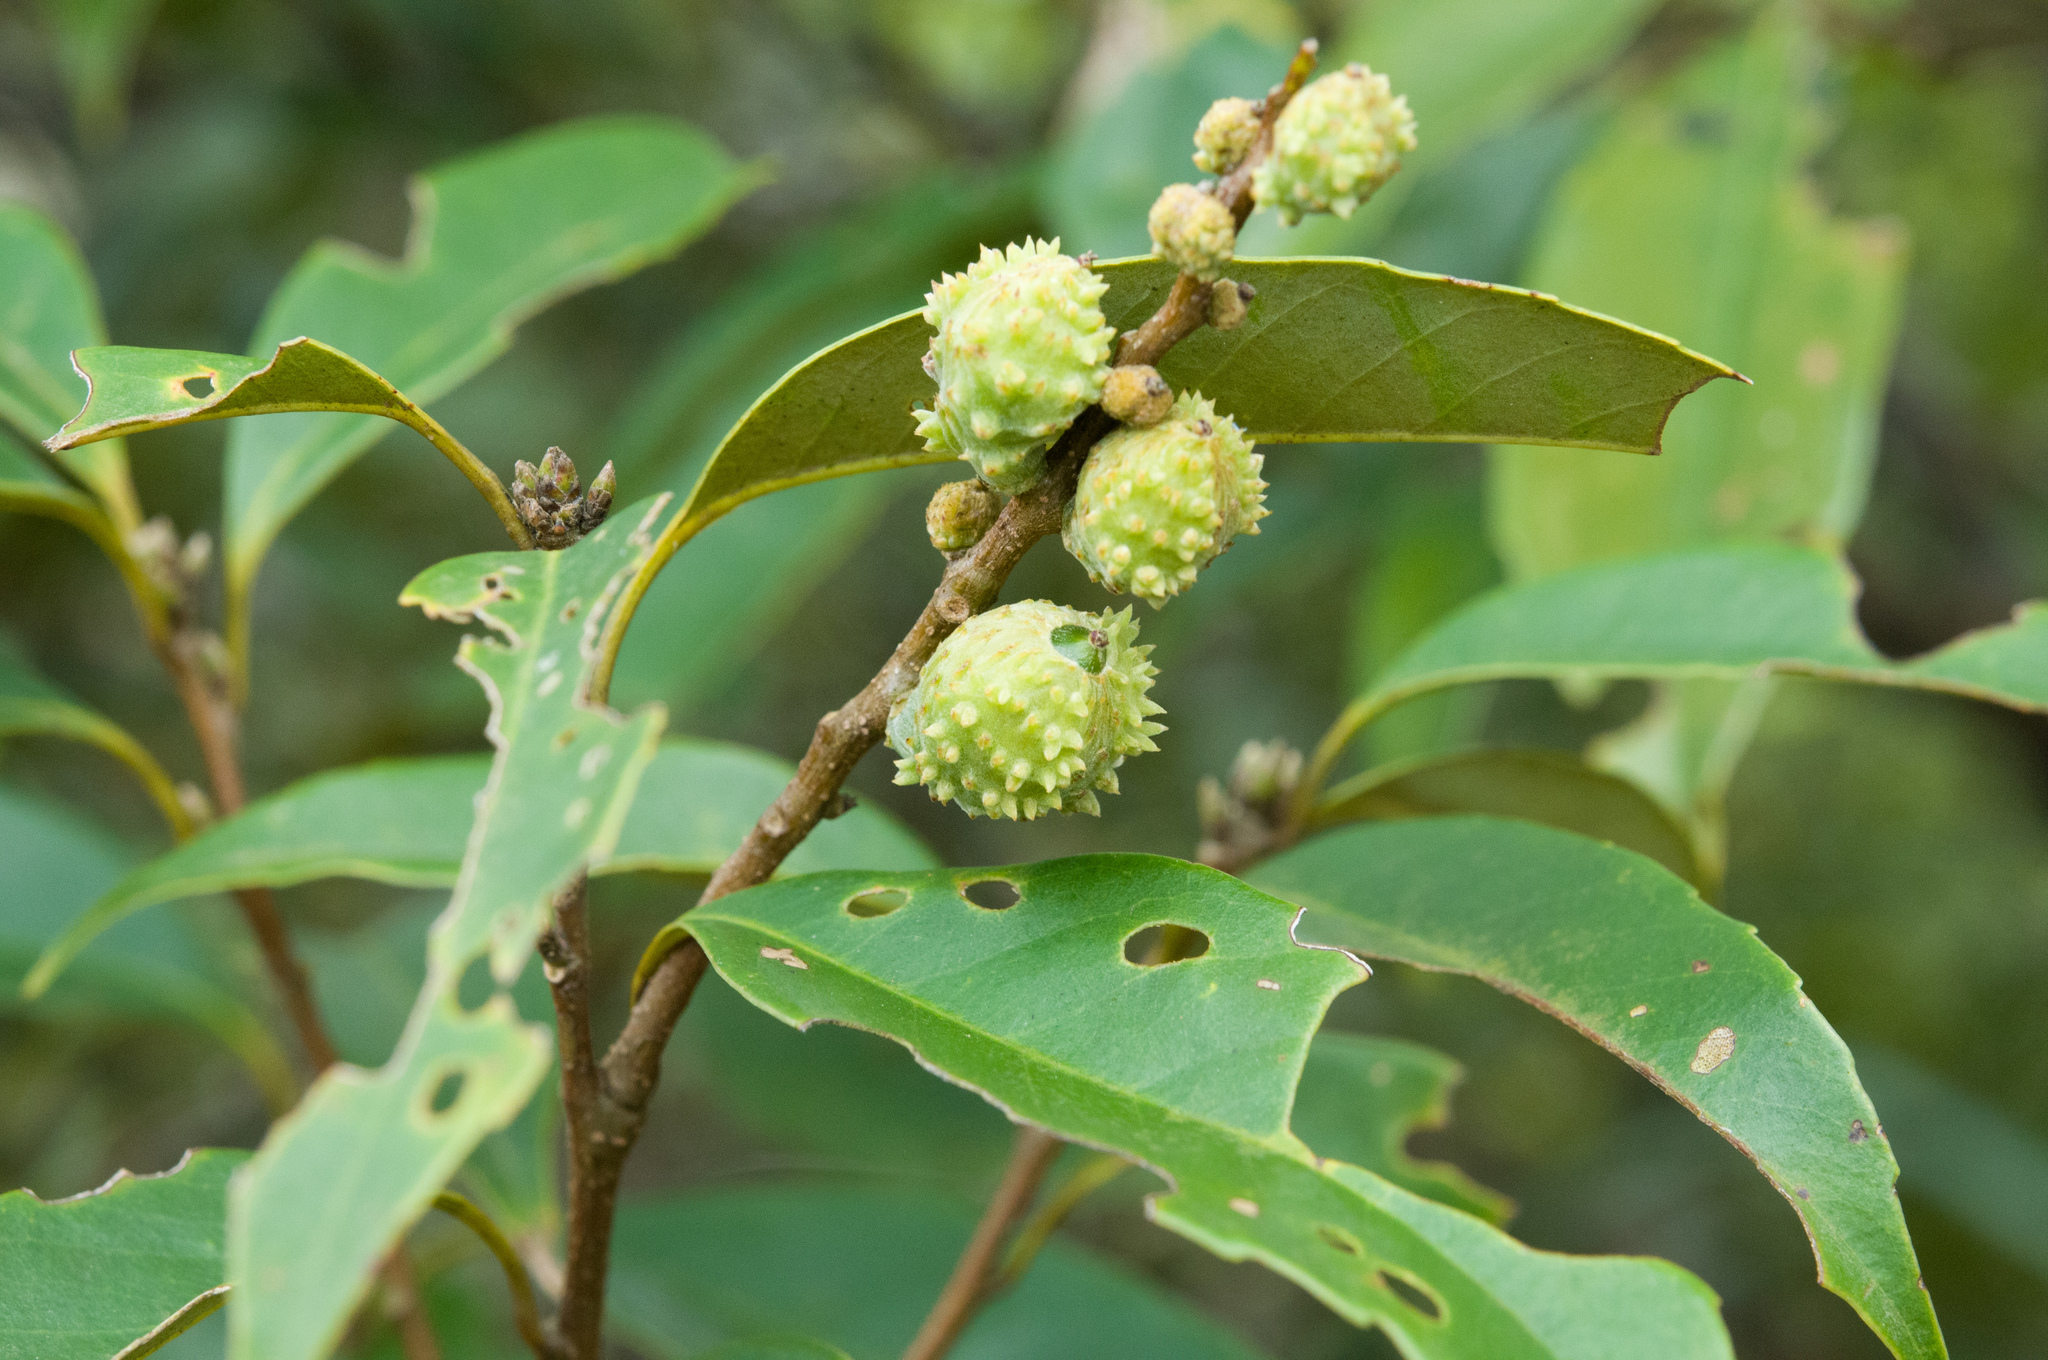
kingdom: Plantae
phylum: Tracheophyta
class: Magnoliopsida
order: Fagales
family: Fagaceae
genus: Castanopsis
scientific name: Castanopsis carlesii
